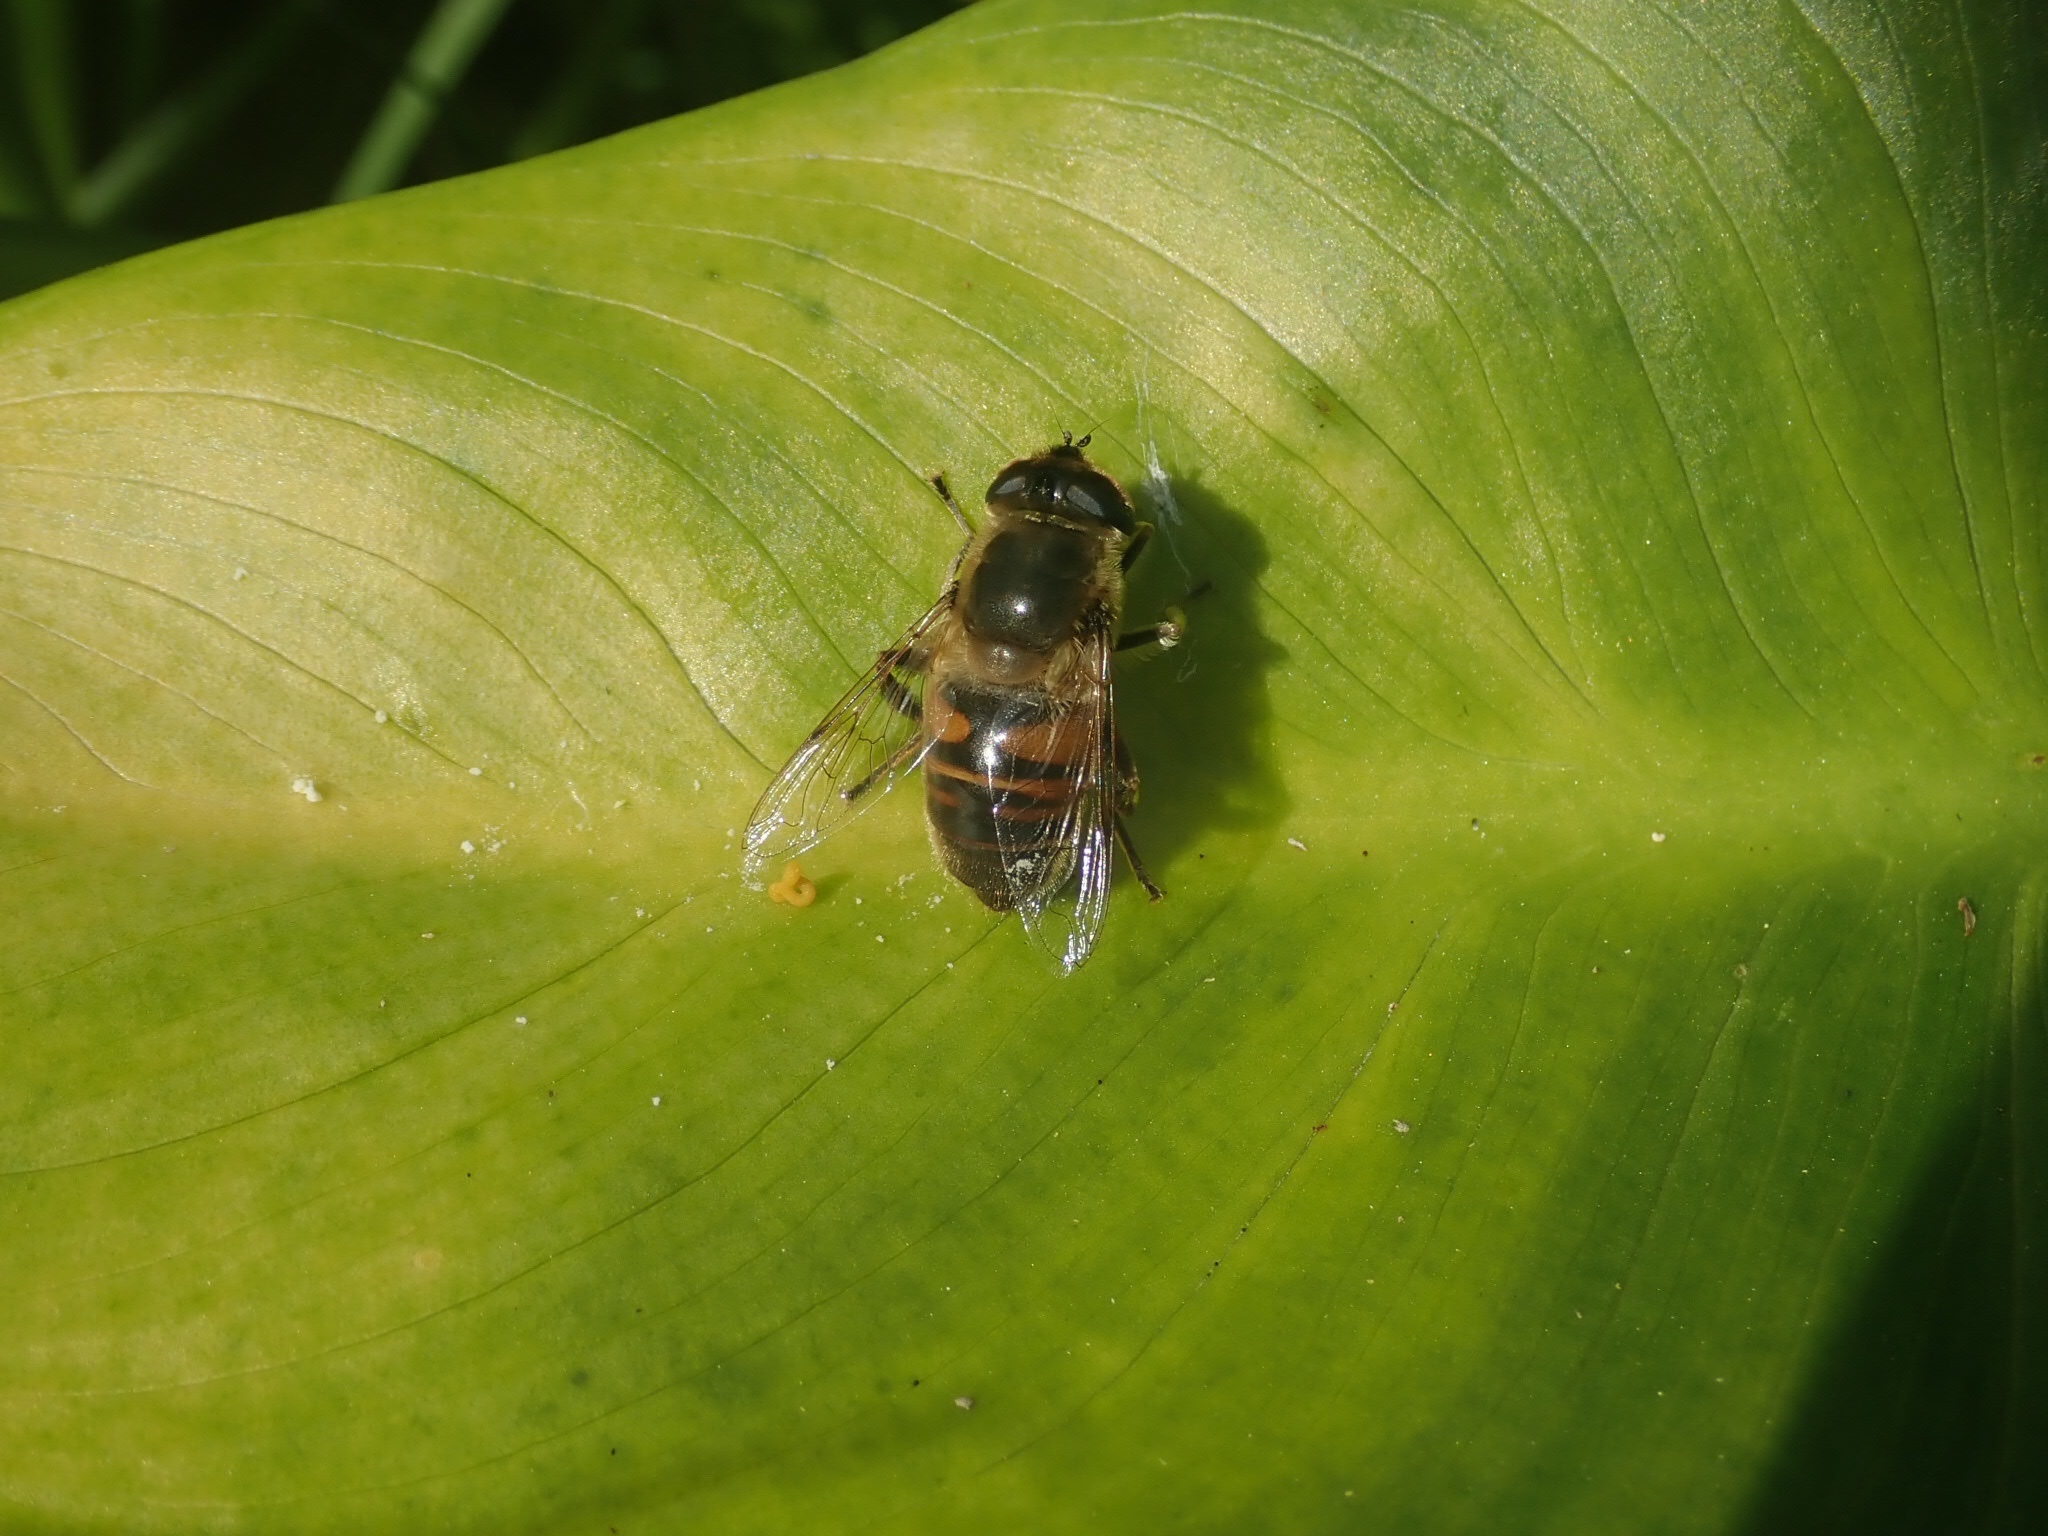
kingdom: Animalia
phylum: Arthropoda
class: Insecta
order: Diptera
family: Syrphidae
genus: Eristalis
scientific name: Eristalis tenax
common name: Drone fly
